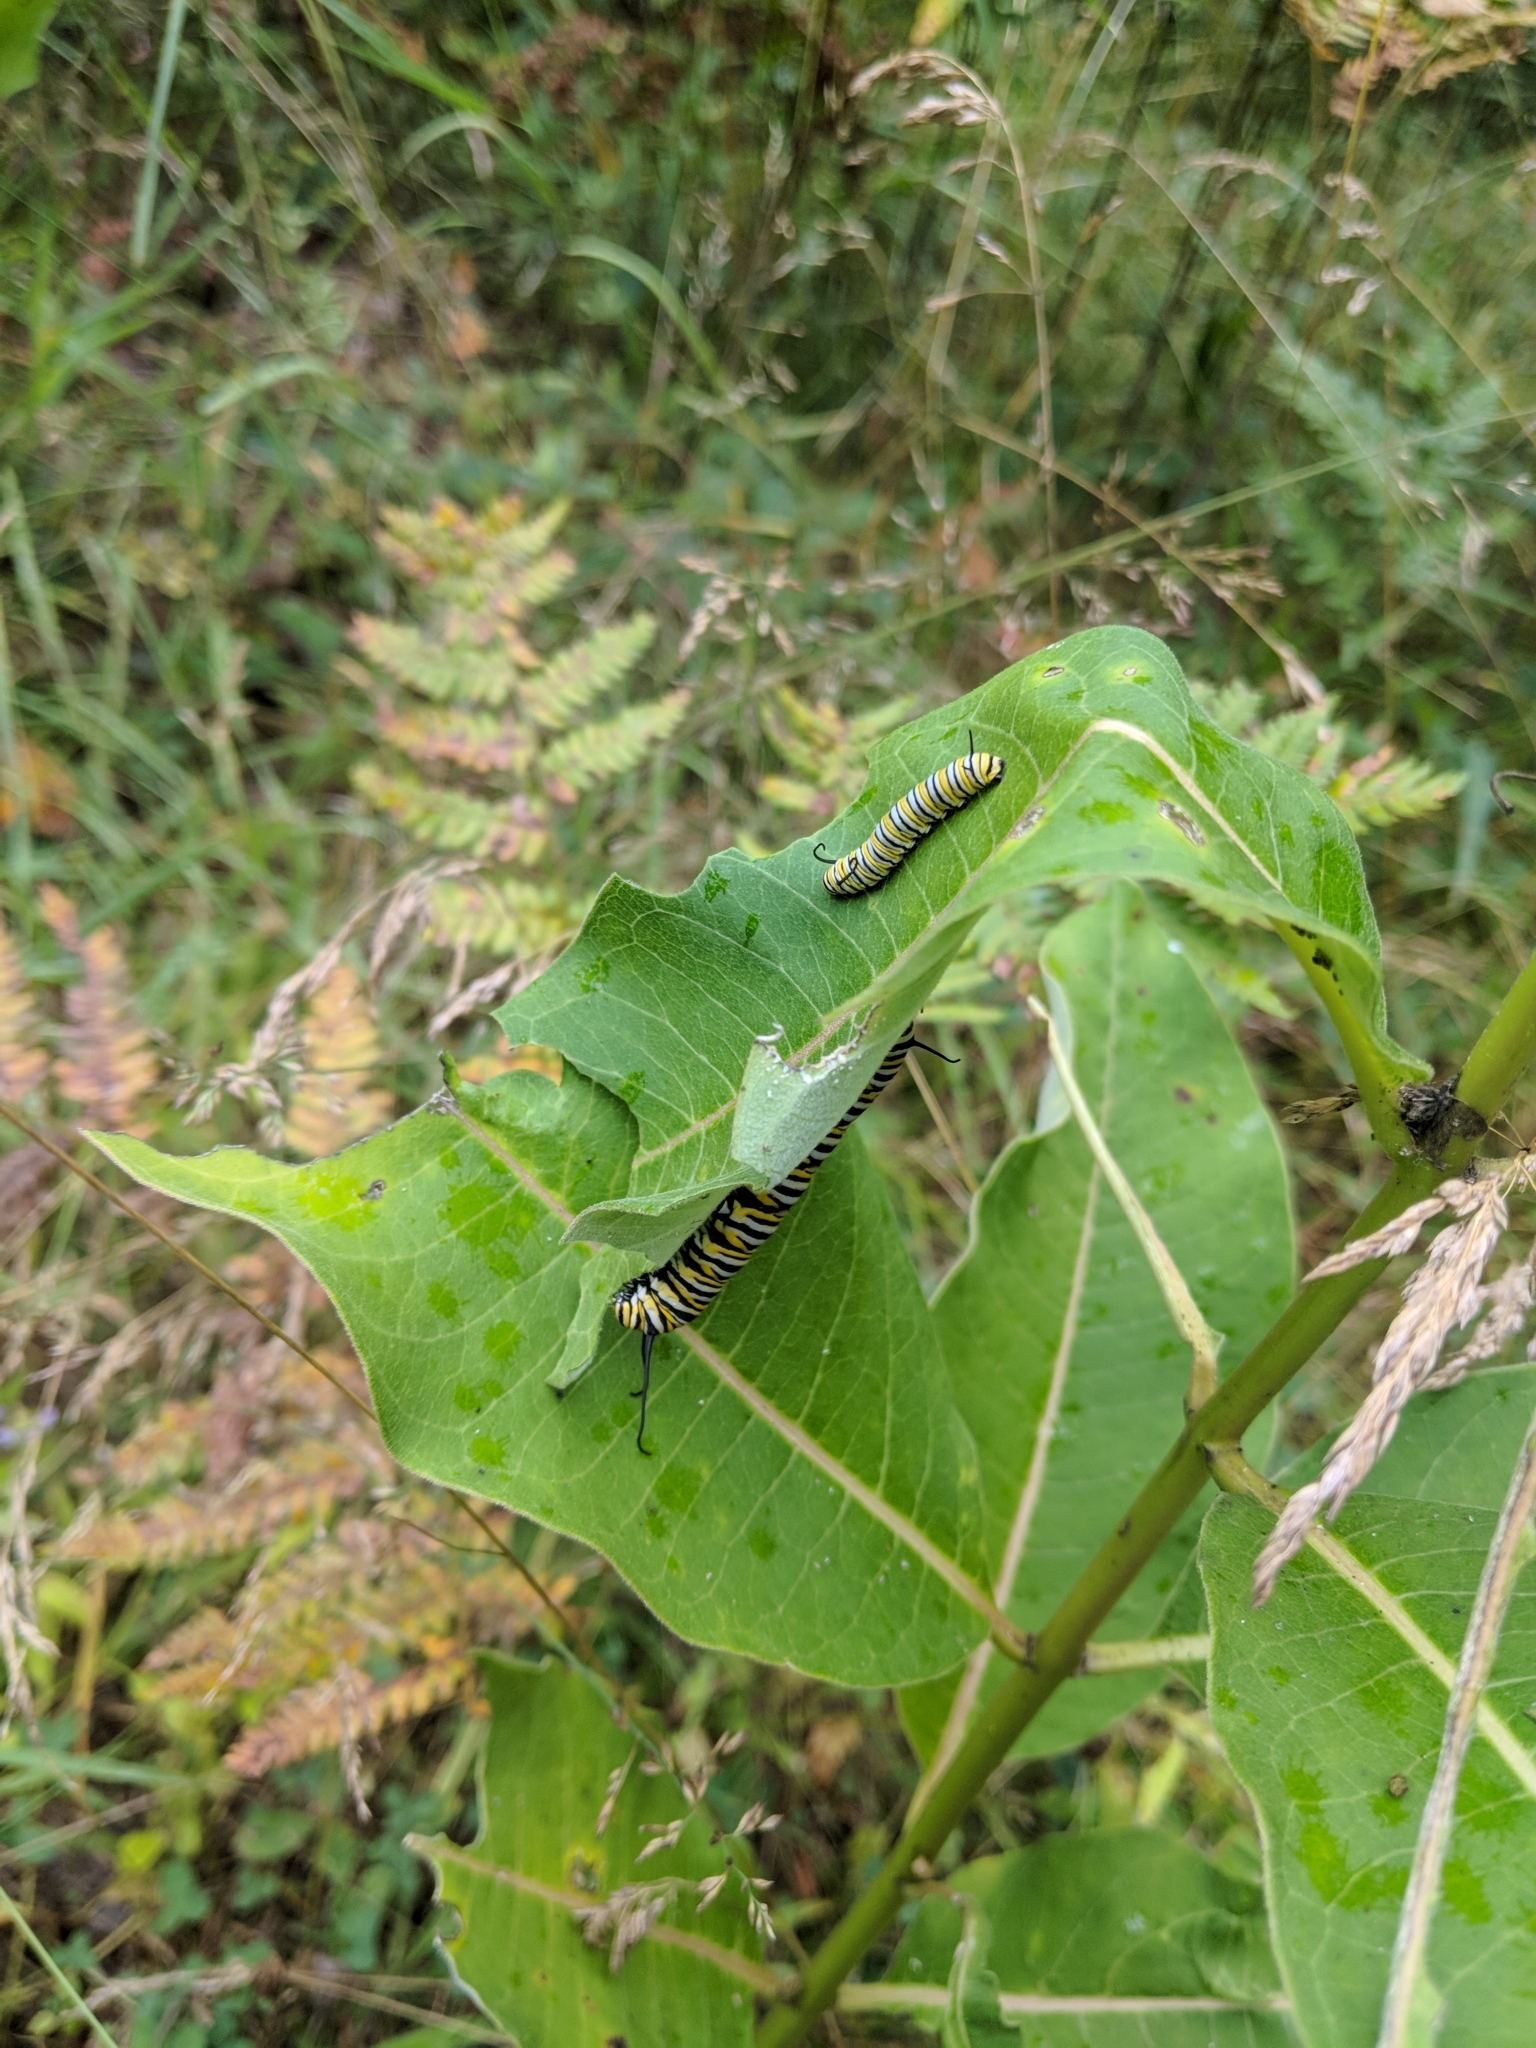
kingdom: Animalia
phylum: Arthropoda
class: Insecta
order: Lepidoptera
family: Nymphalidae
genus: Danaus
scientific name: Danaus plexippus
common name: Monarch
